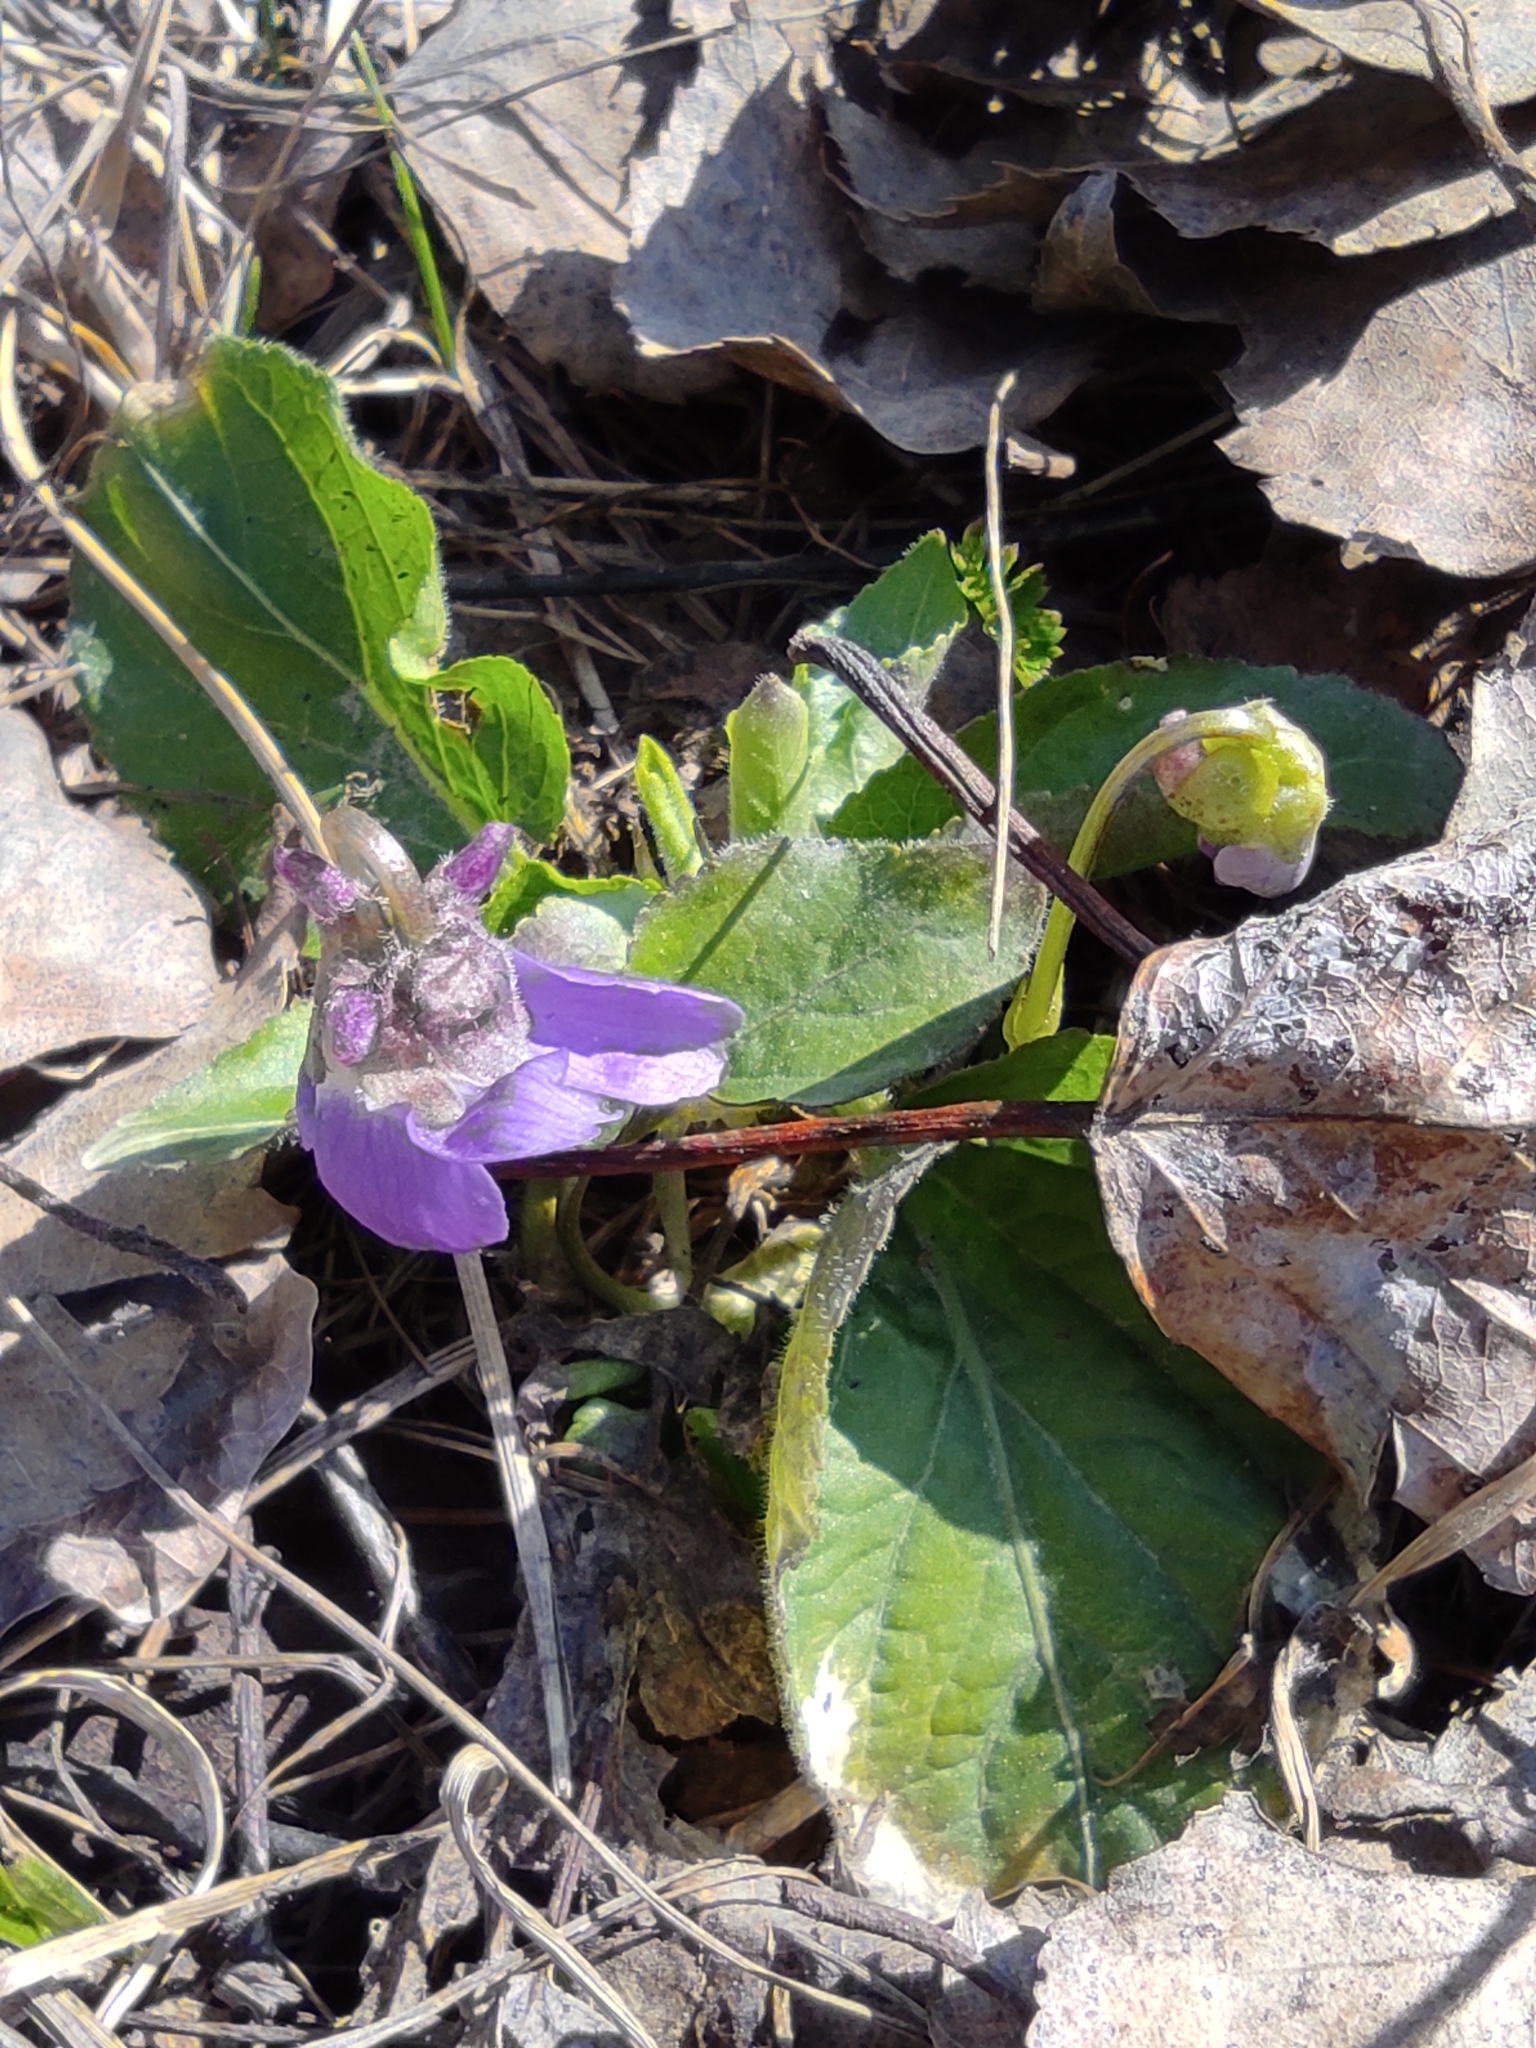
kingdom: Plantae
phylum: Tracheophyta
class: Magnoliopsida
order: Malpighiales
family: Violaceae
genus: Viola
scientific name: Viola hirta
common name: Hairy violet
